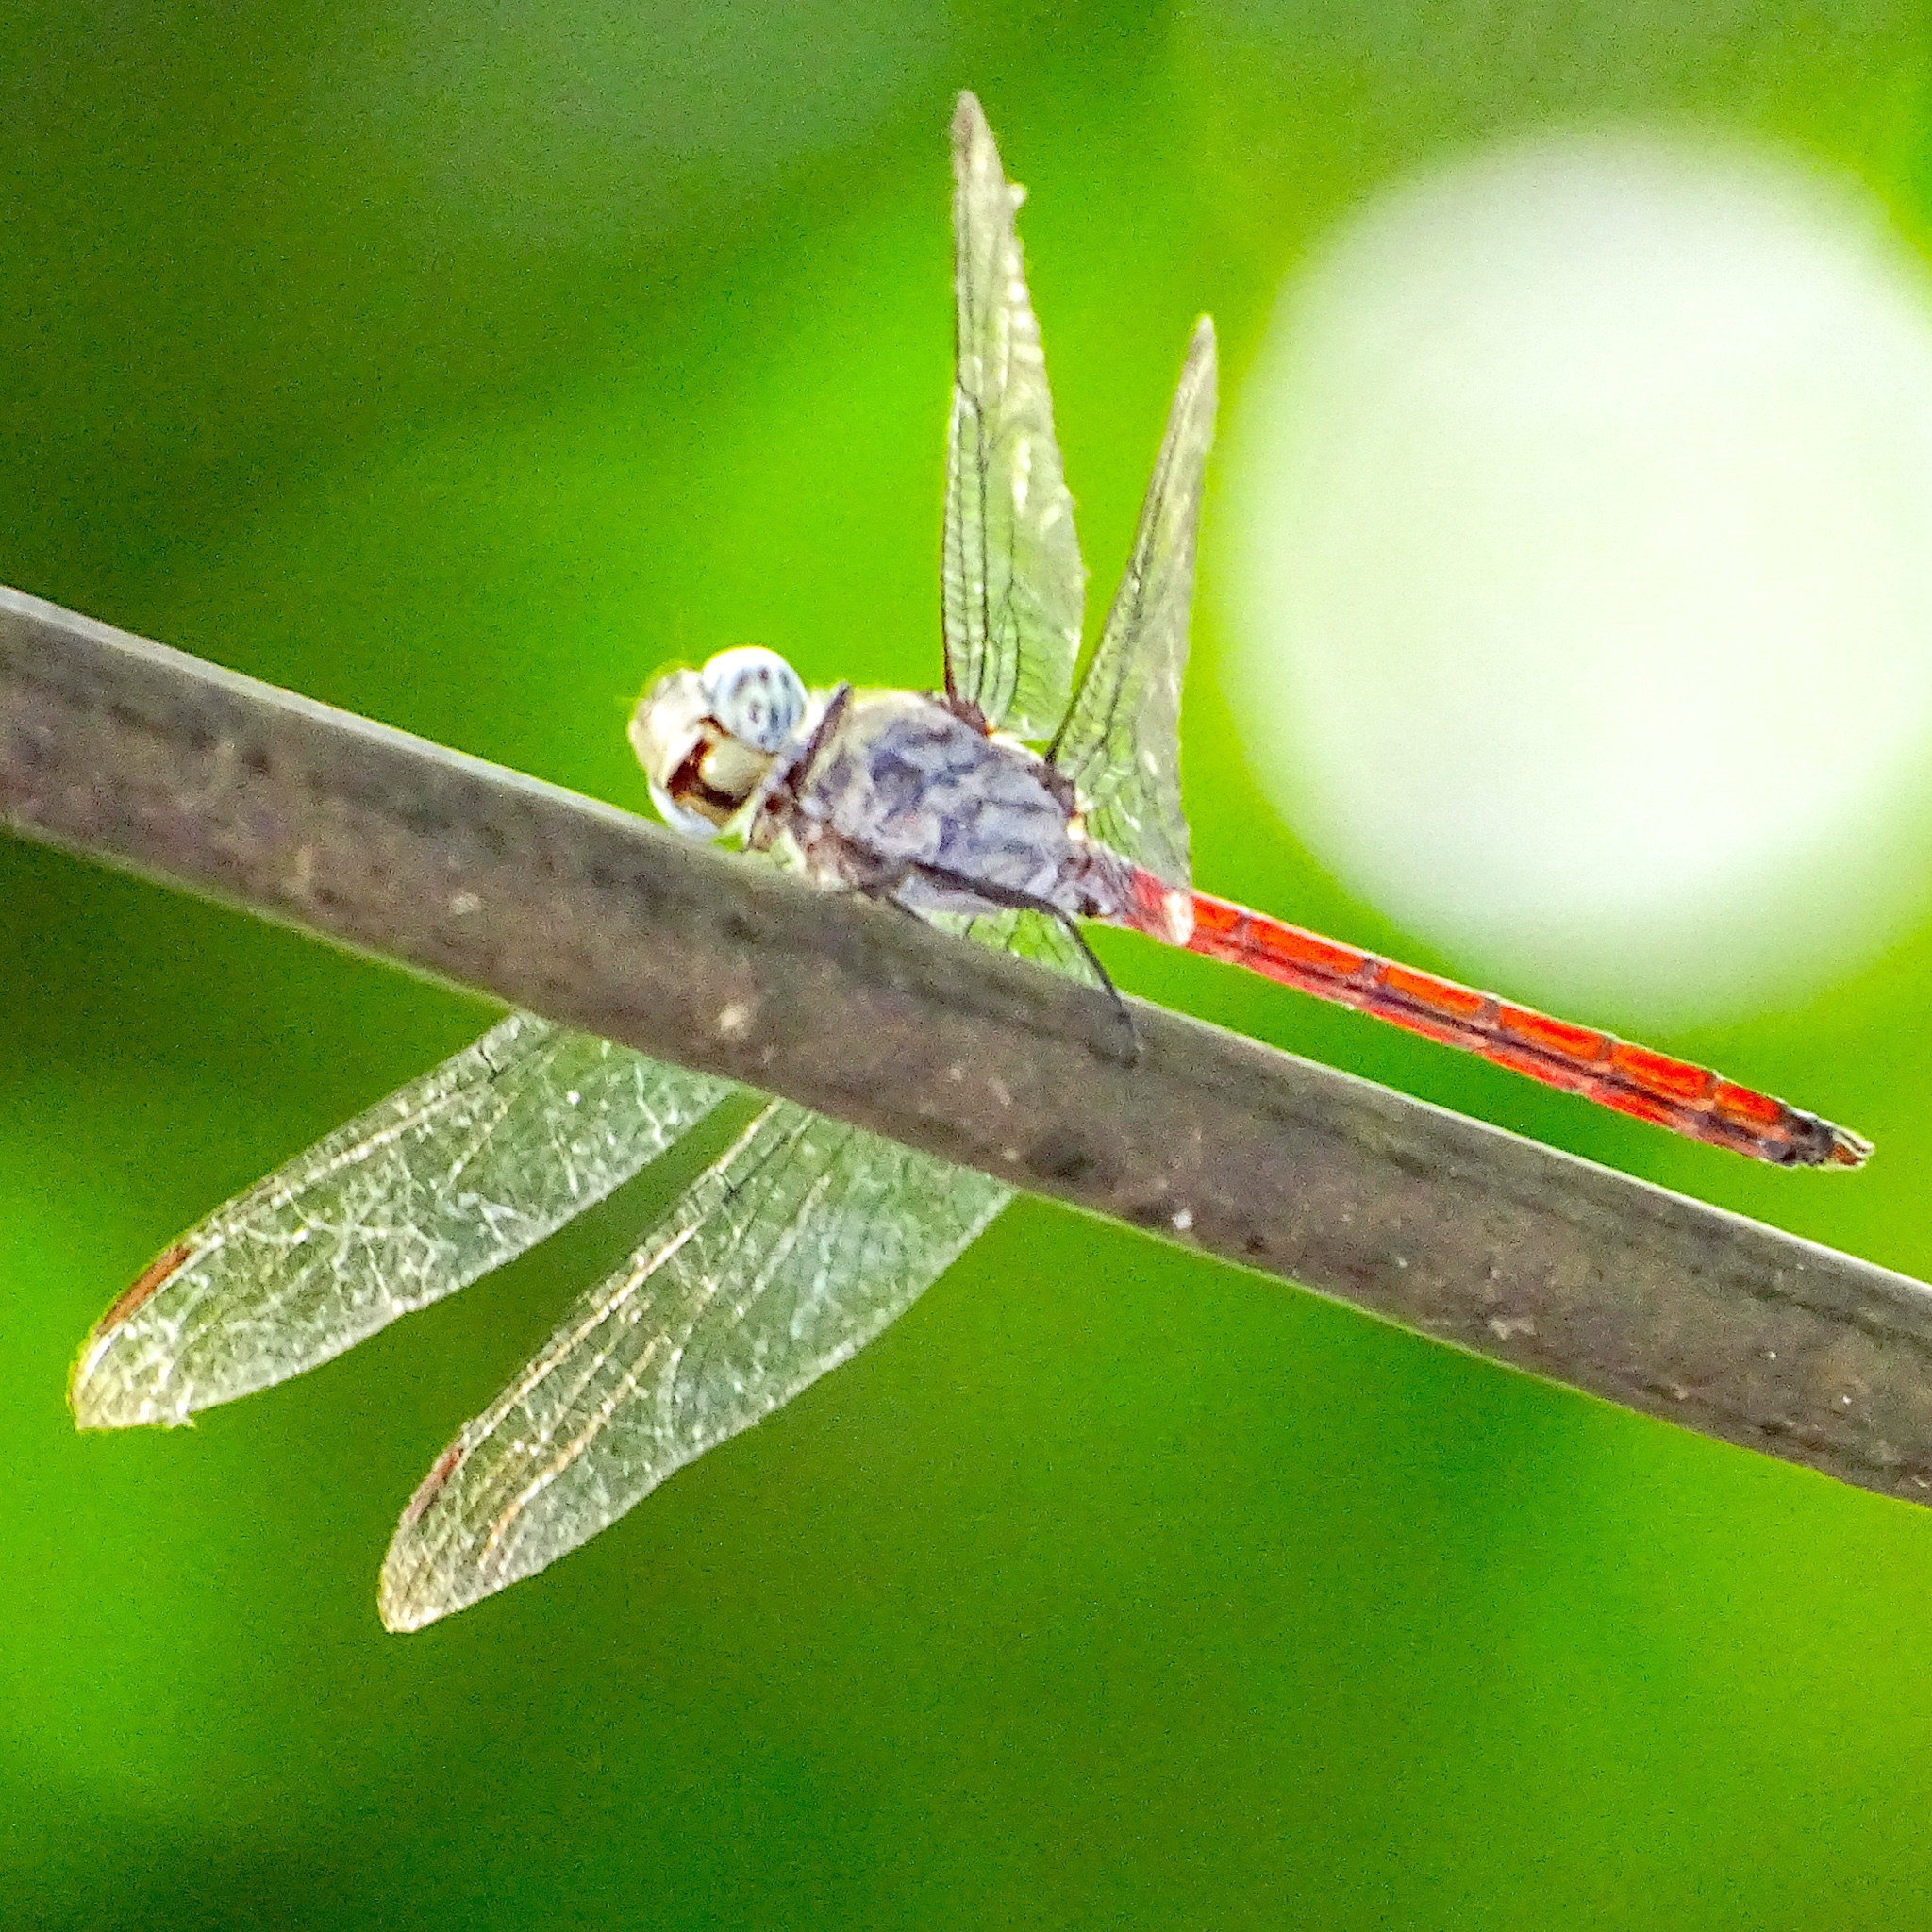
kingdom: Animalia
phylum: Arthropoda
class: Insecta
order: Odonata
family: Libellulidae
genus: Lathrecista
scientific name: Lathrecista asiatica
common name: Scarlet grenadier
